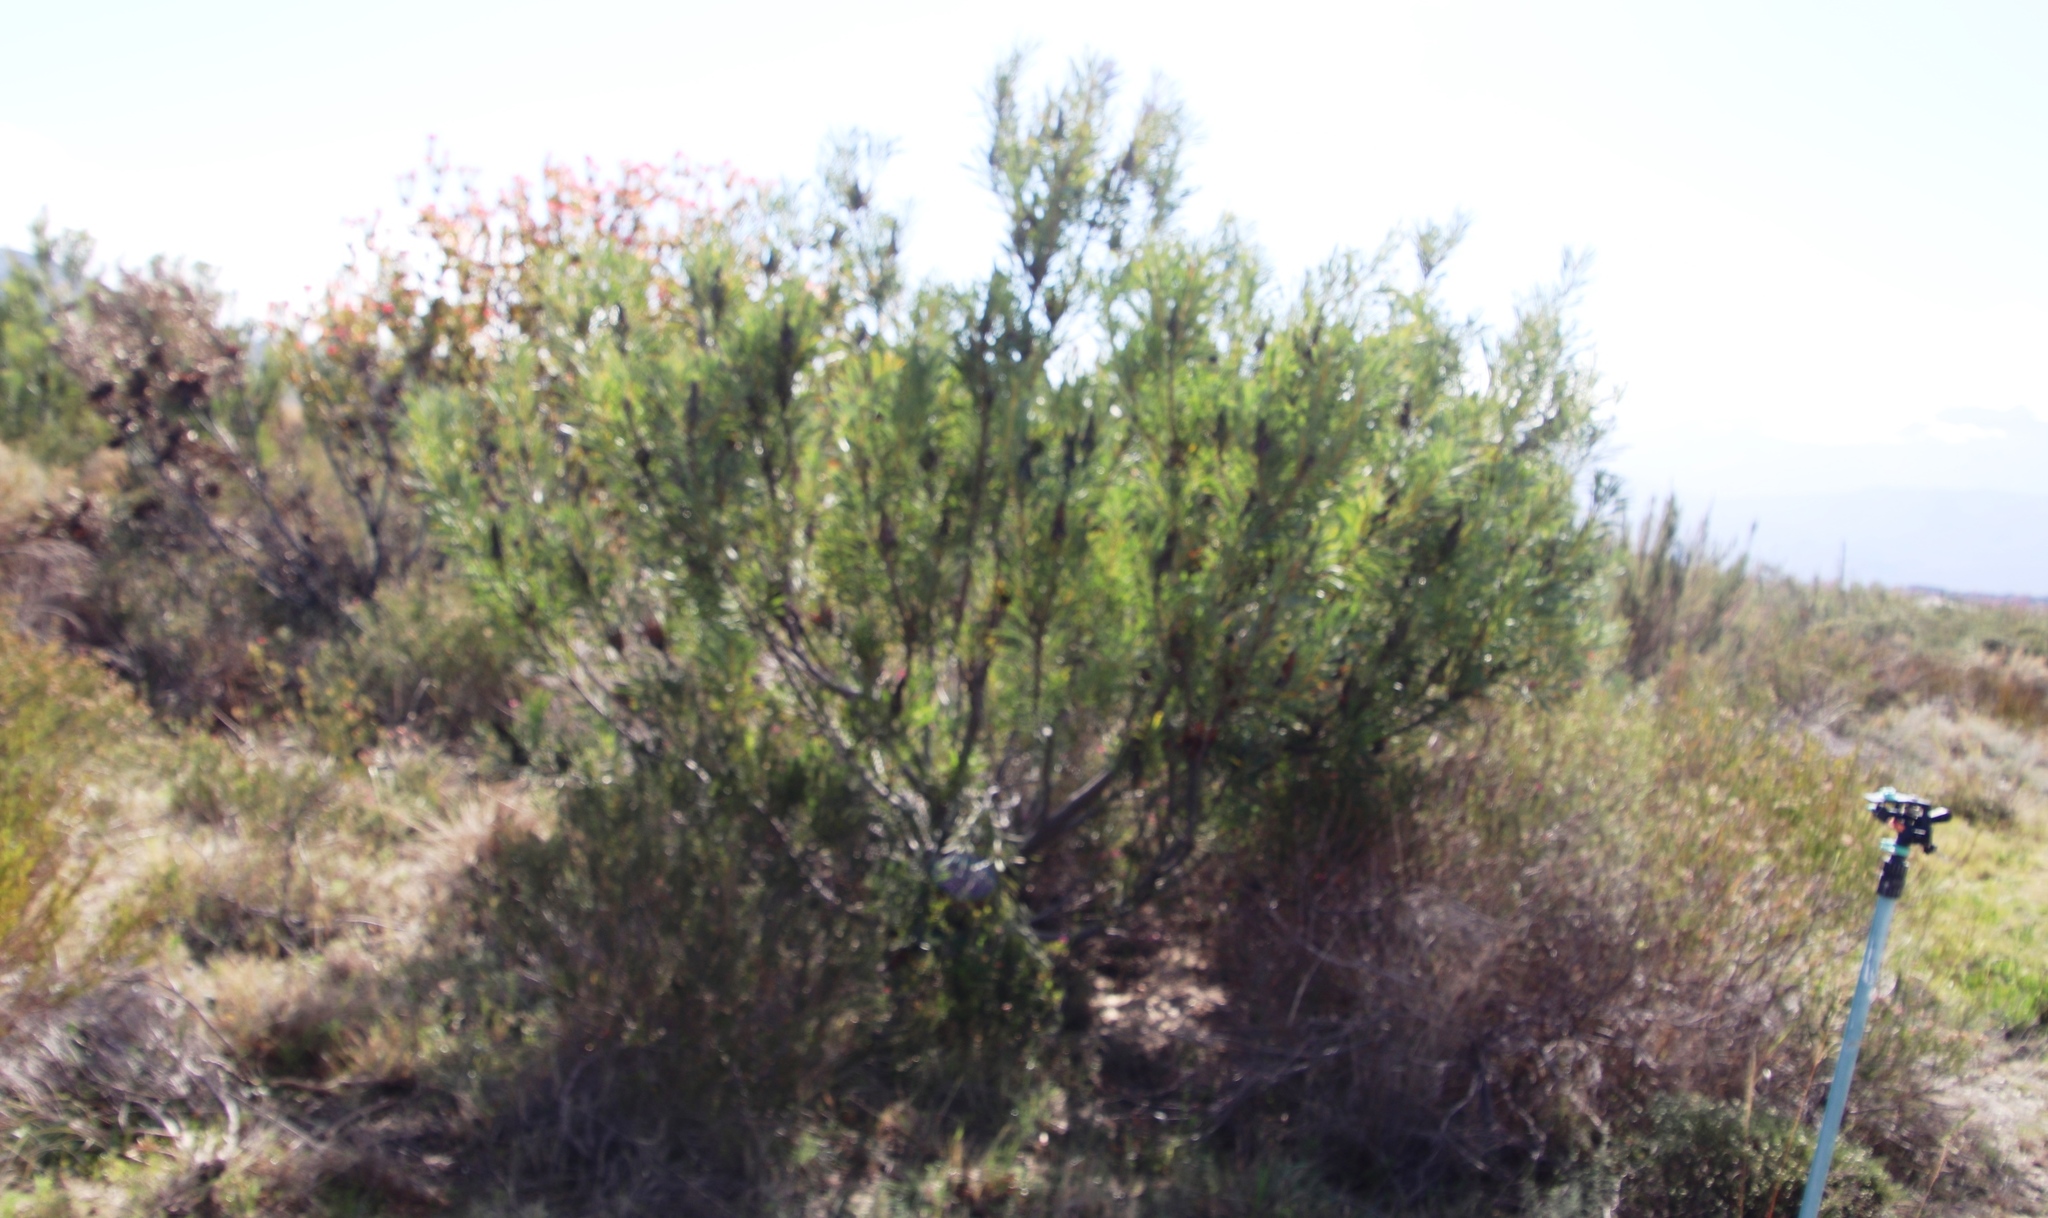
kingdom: Plantae
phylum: Tracheophyta
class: Magnoliopsida
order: Proteales
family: Proteaceae
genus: Protea
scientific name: Protea repens
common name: Sugarbush
